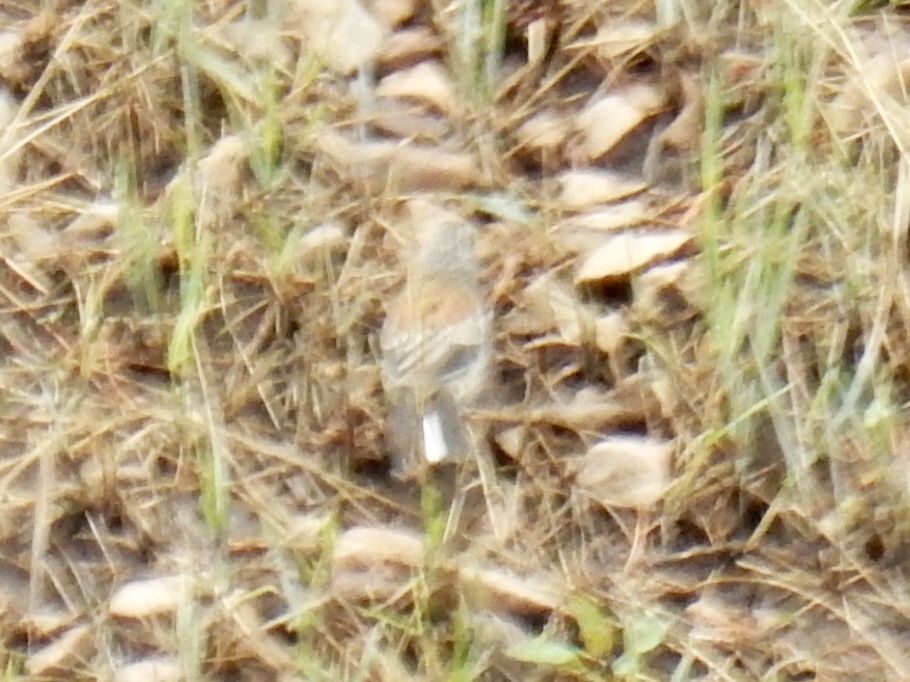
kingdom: Animalia
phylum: Chordata
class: Aves
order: Passeriformes
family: Passerellidae
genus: Junco
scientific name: Junco hyemalis
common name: Dark-eyed junco
